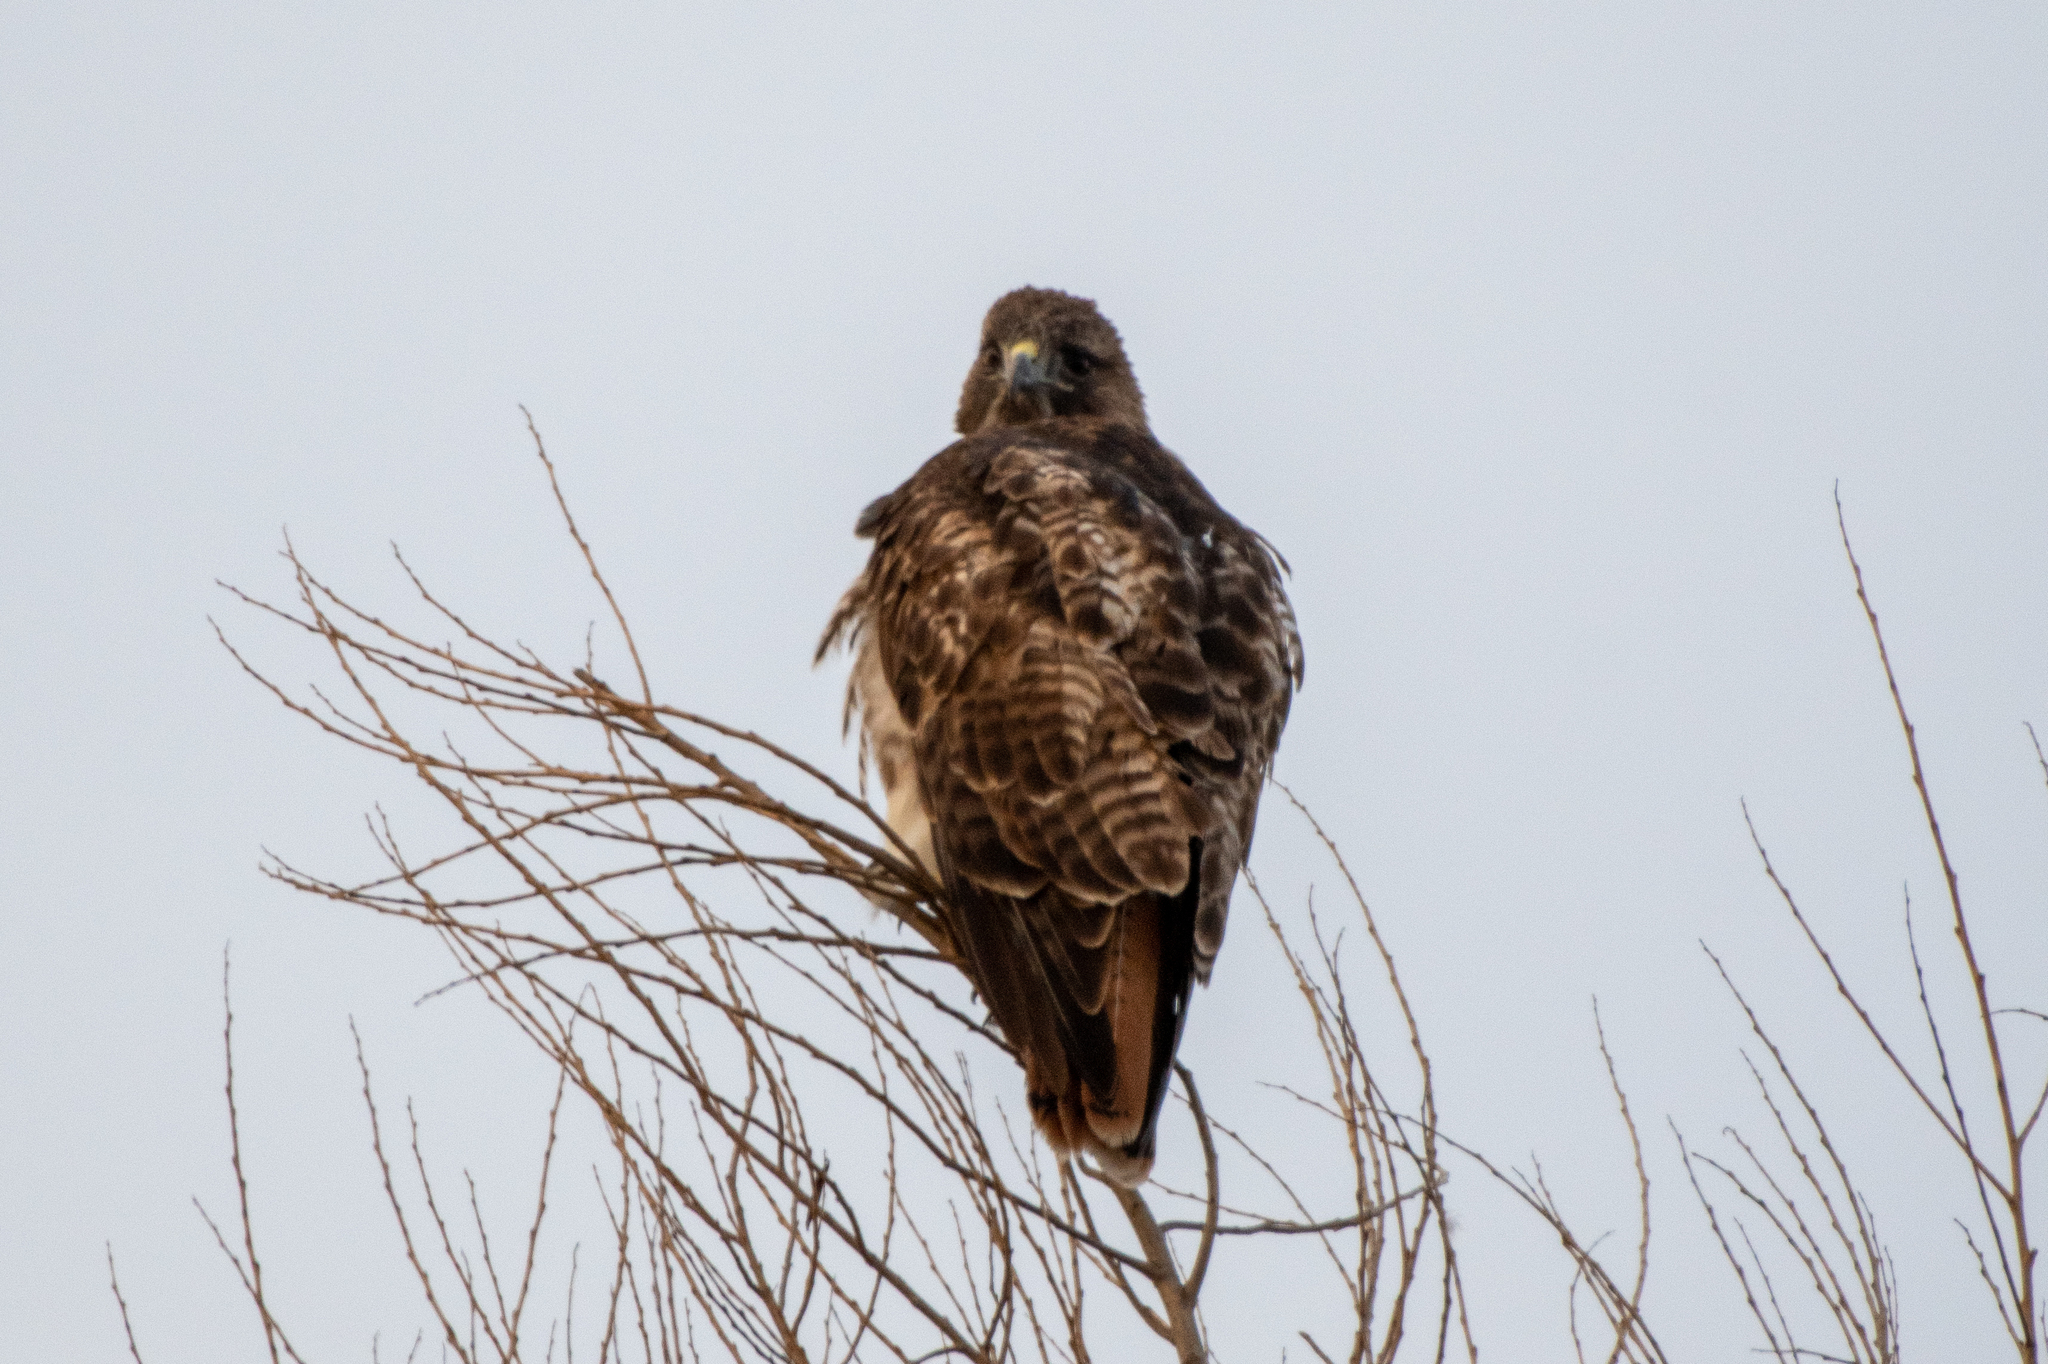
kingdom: Animalia
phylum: Chordata
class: Aves
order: Accipitriformes
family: Accipitridae
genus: Buteo
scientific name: Buteo jamaicensis
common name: Red-tailed hawk
